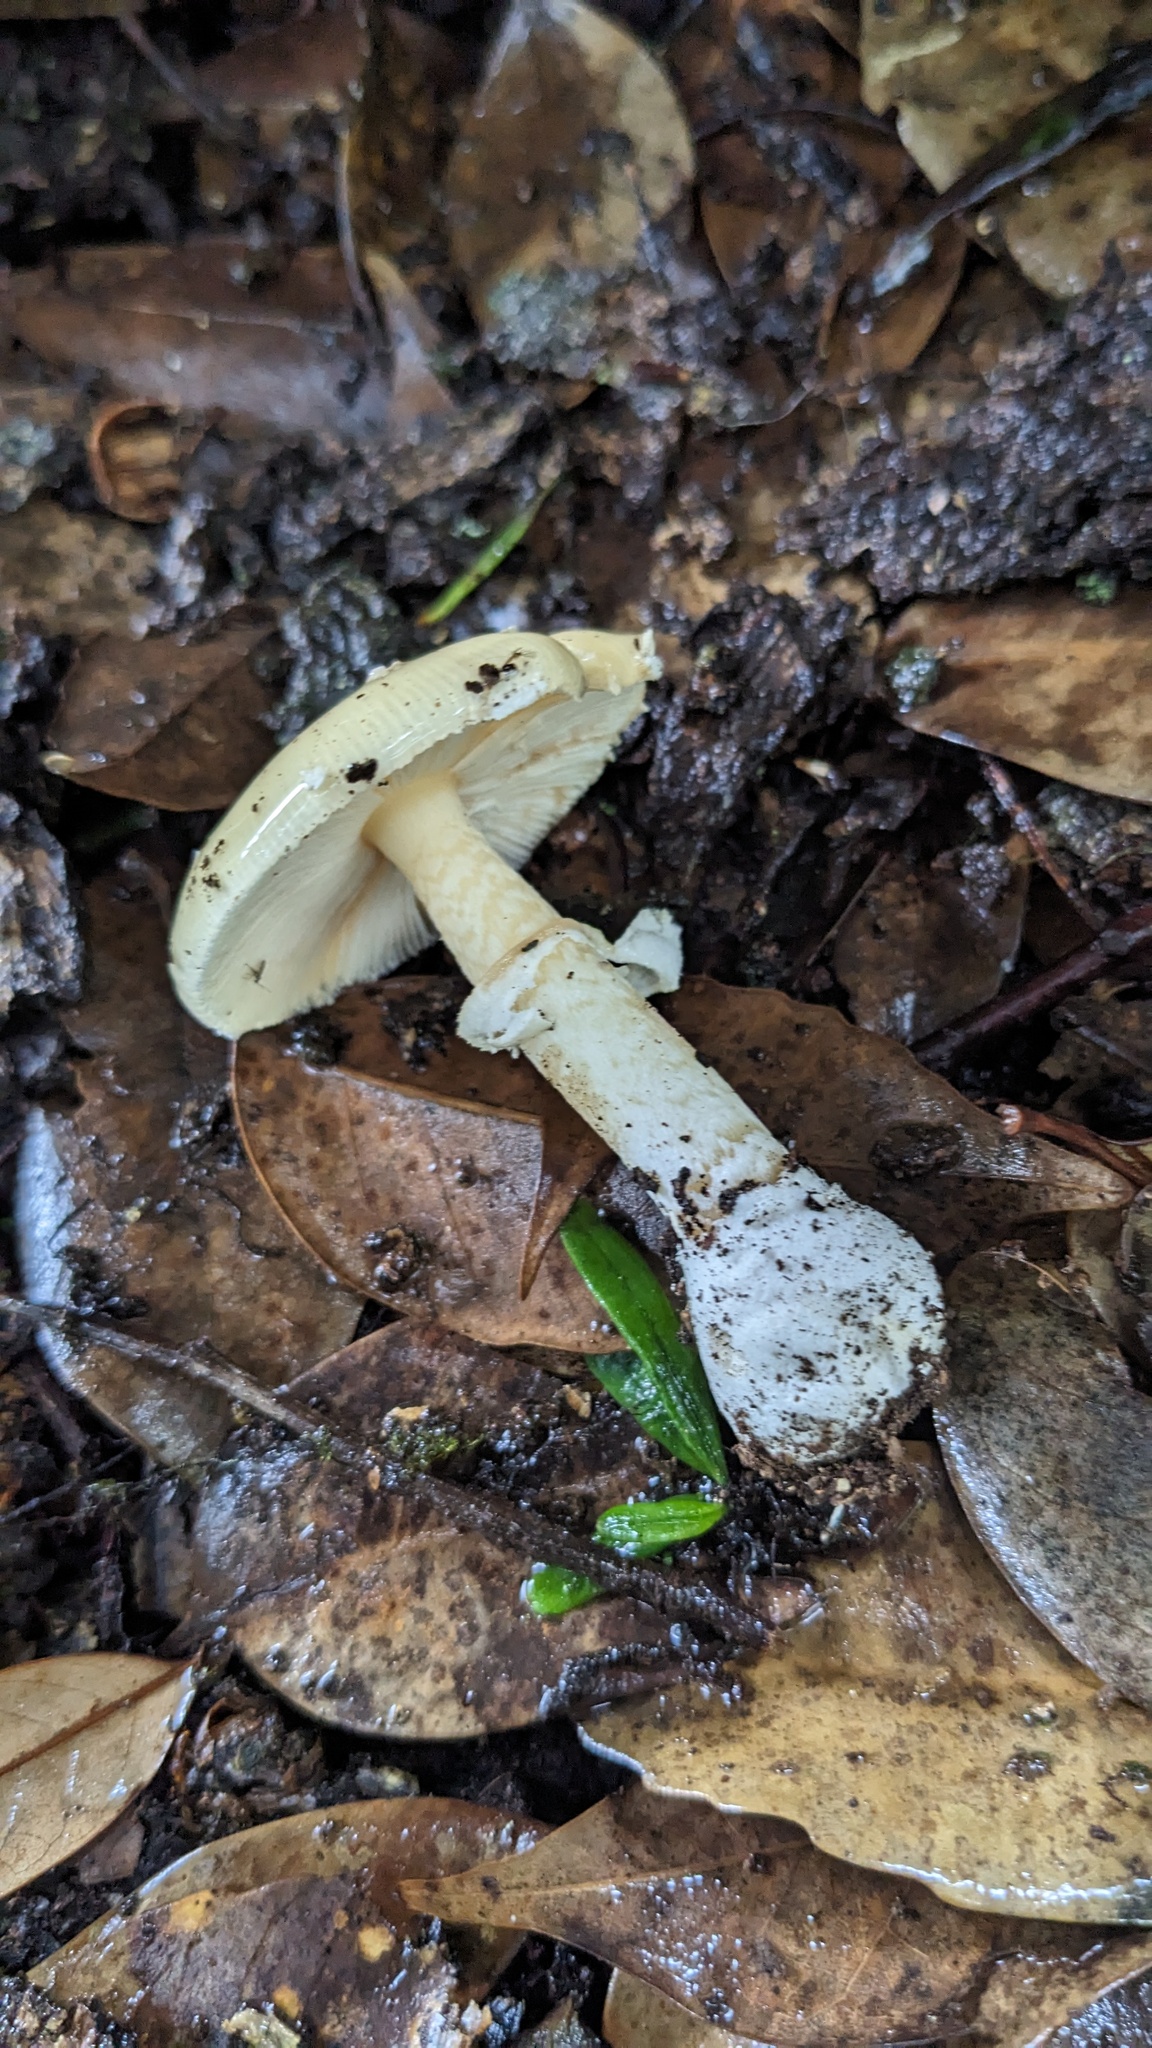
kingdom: Fungi
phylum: Basidiomycota
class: Agaricomycetes
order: Agaricales
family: Amanitaceae
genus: Amanita
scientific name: Amanita orientigemmata
